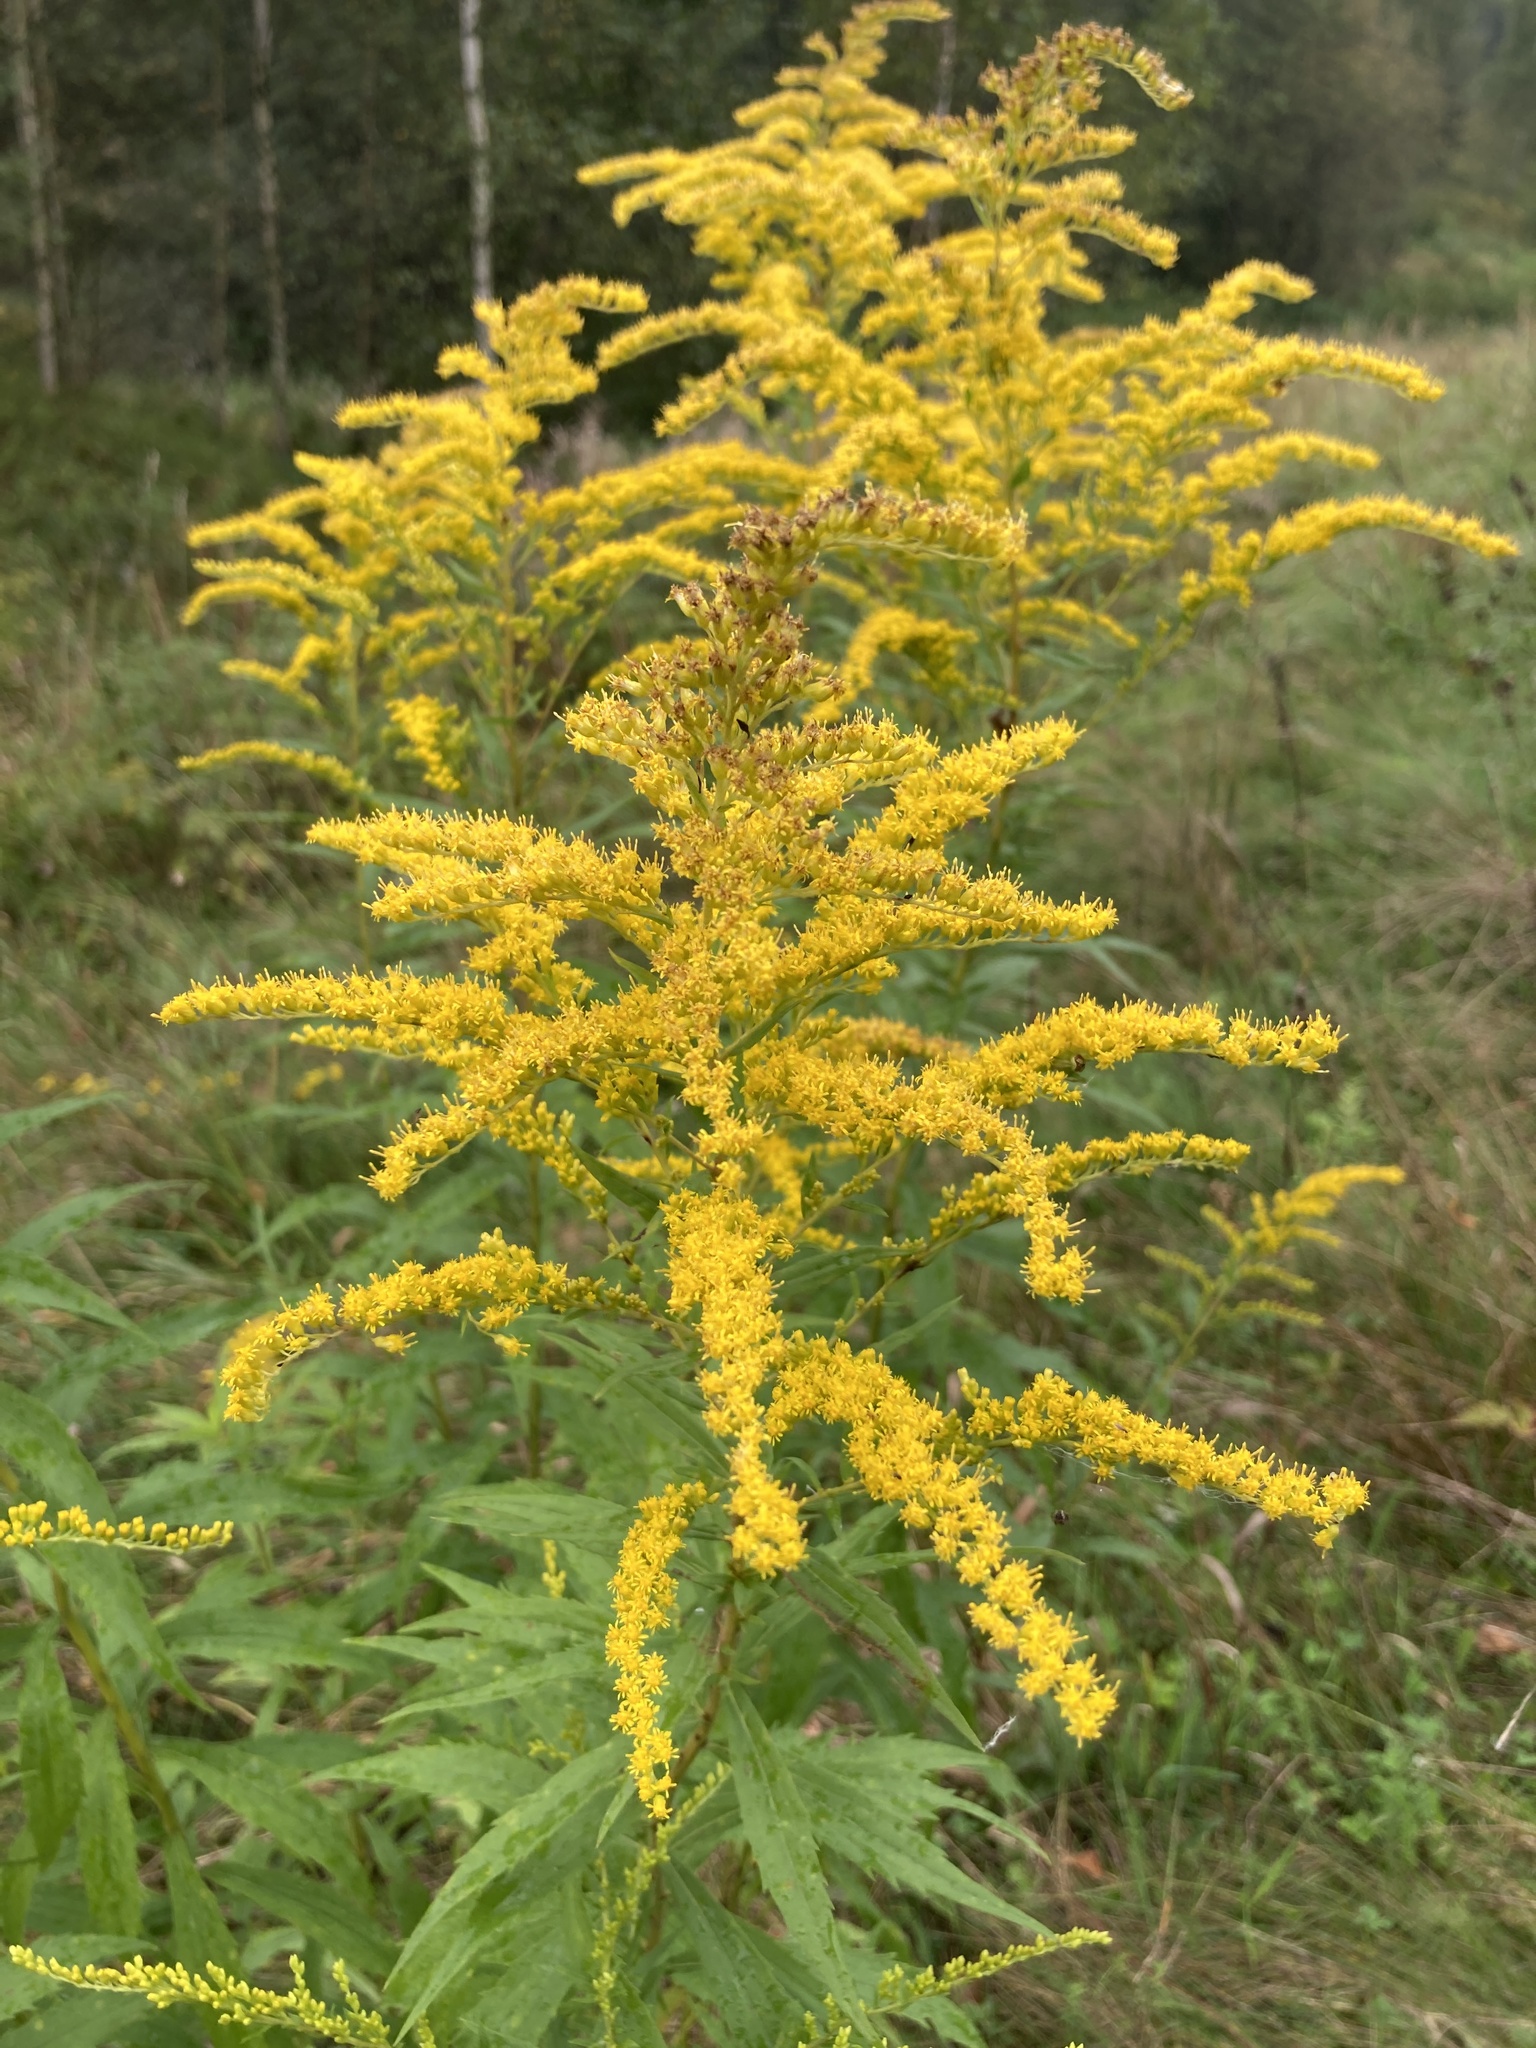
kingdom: Plantae
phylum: Tracheophyta
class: Magnoliopsida
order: Asterales
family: Asteraceae
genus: Solidago
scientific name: Solidago canadensis
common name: Canada goldenrod
